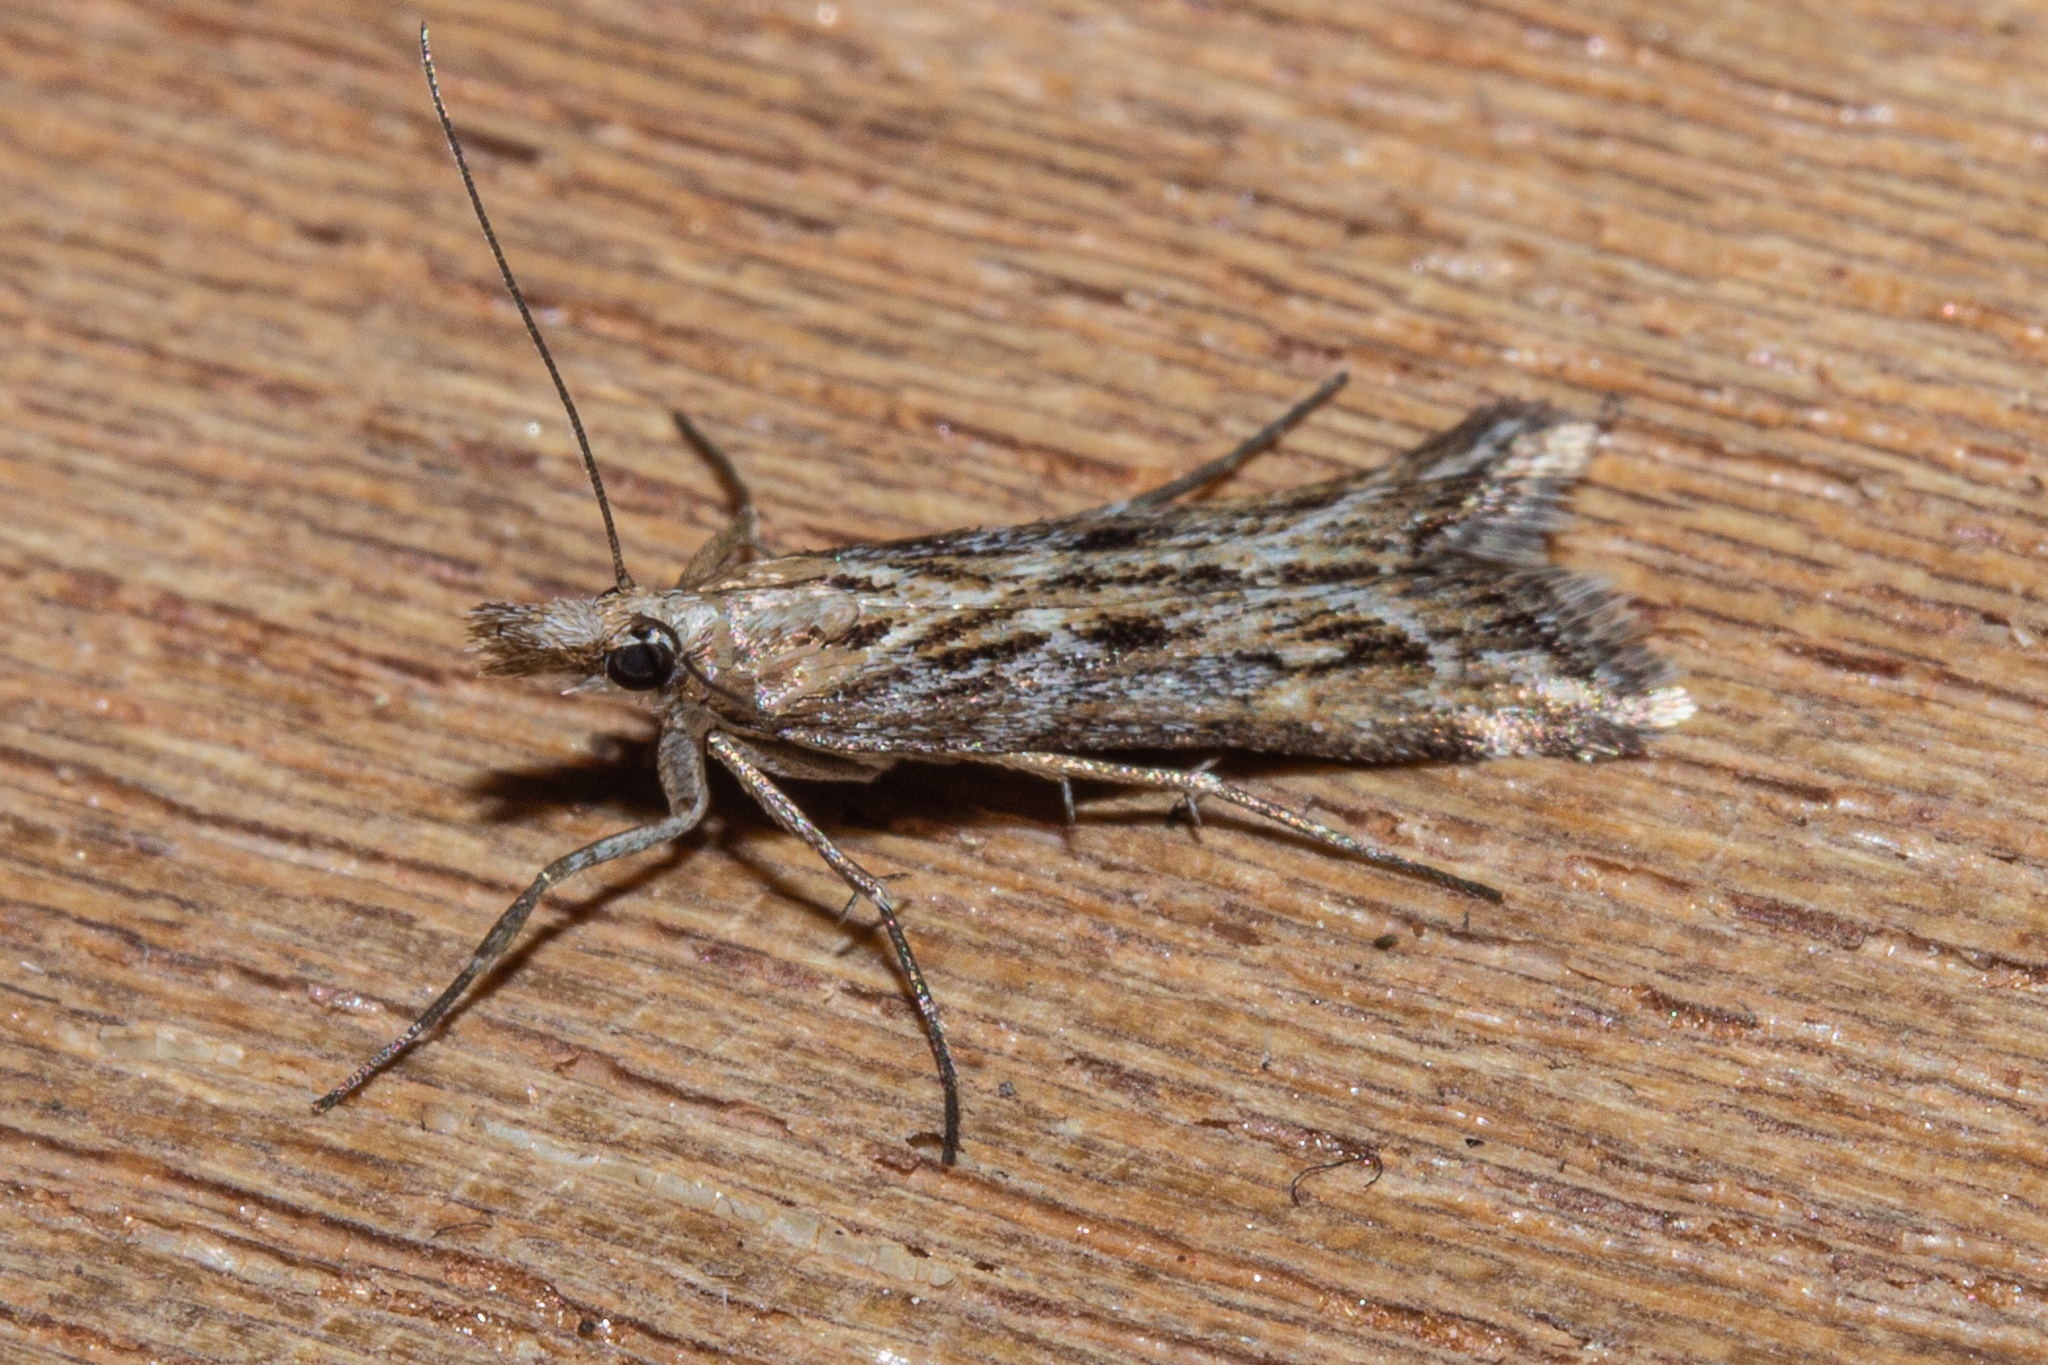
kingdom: Animalia
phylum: Arthropoda
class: Insecta
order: Lepidoptera
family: Crambidae
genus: Scoparia
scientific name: Scoparia exilis
